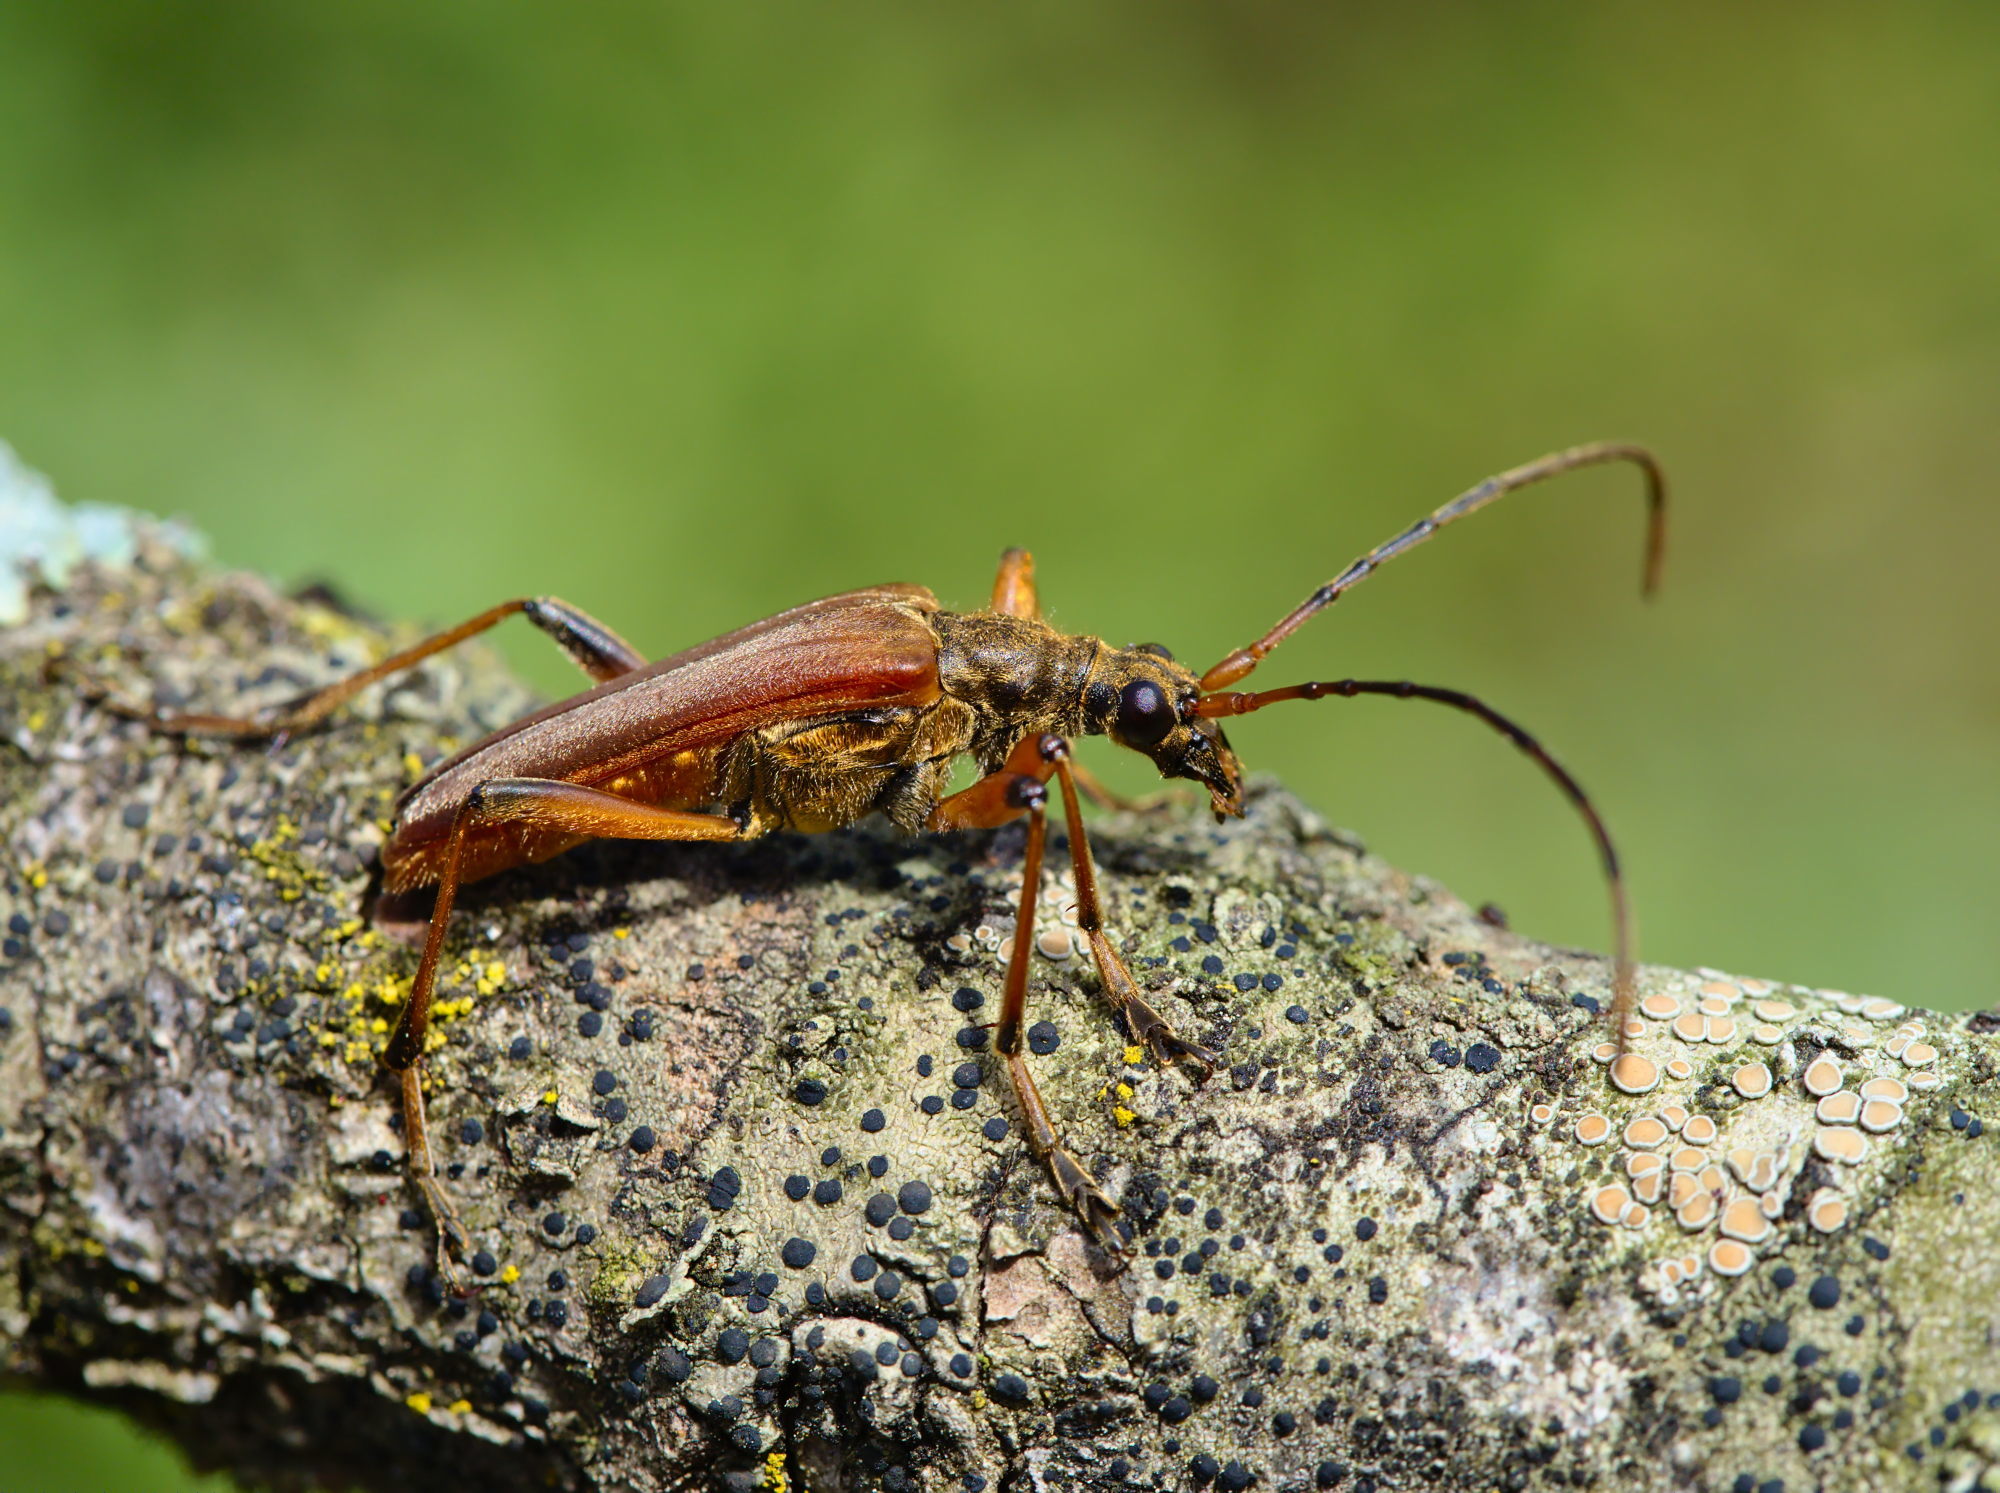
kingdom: Animalia
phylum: Arthropoda
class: Insecta
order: Coleoptera
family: Cerambycidae
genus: Stenocorus
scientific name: Stenocorus meridianus
